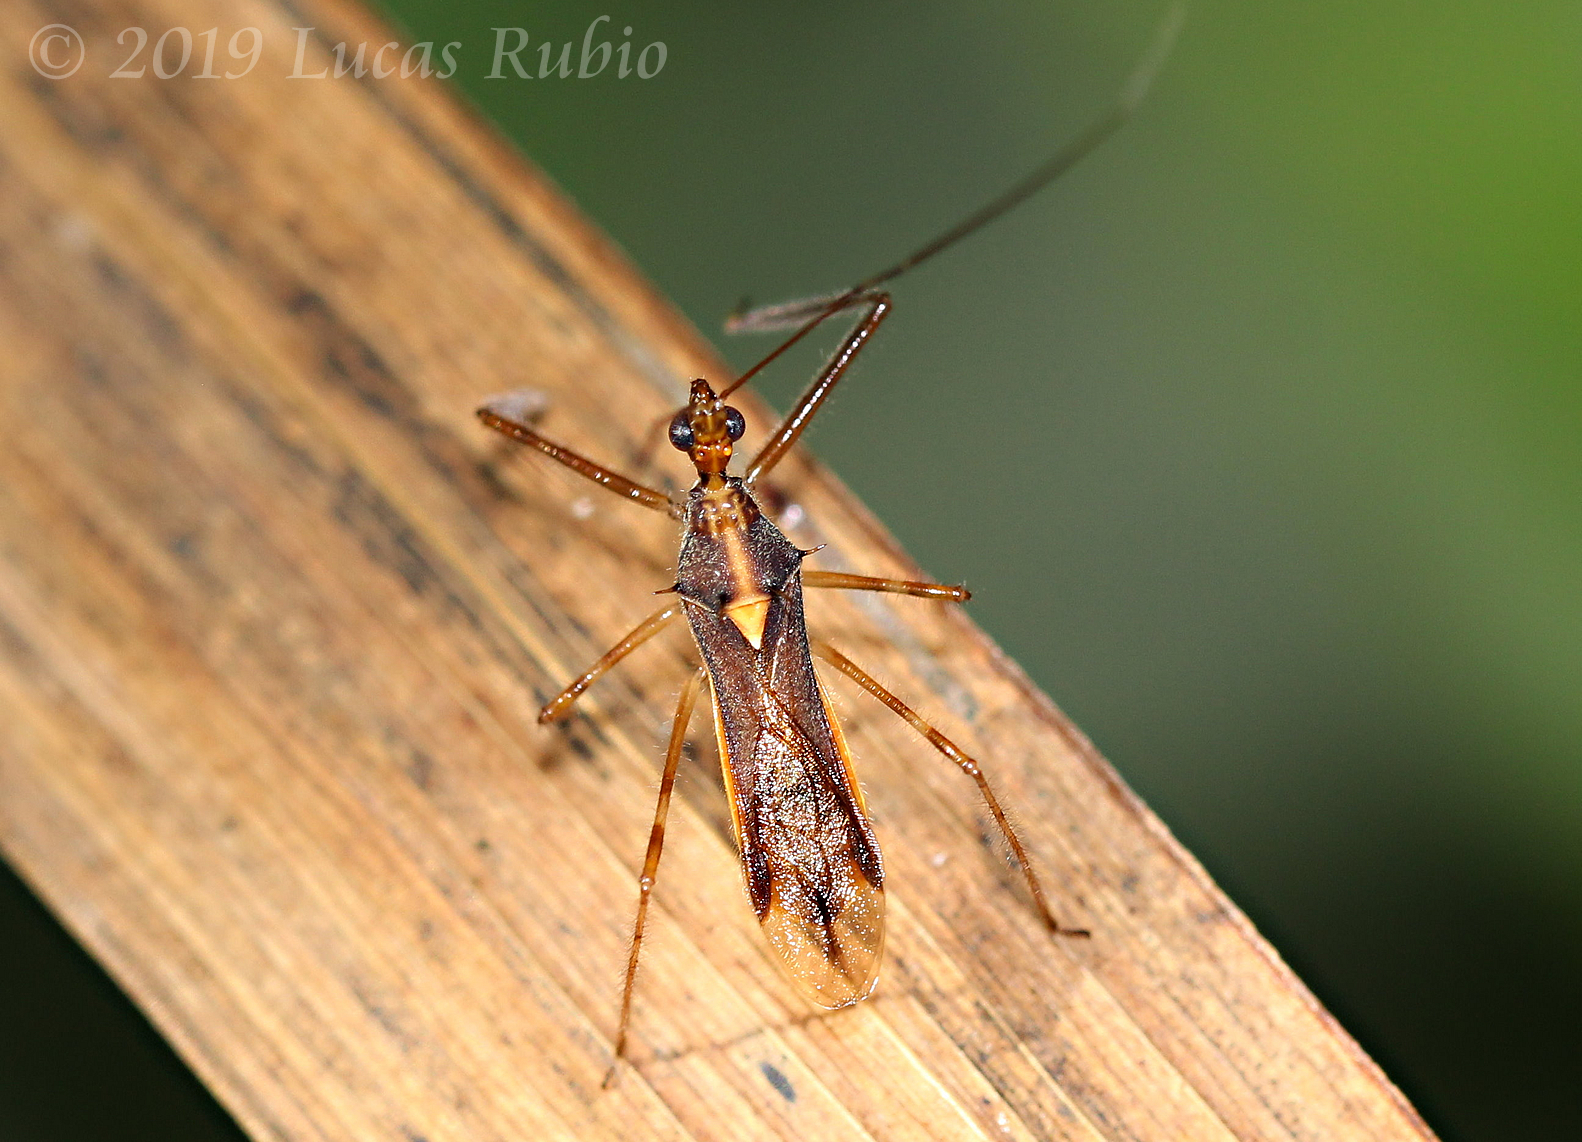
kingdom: Animalia
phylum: Arthropoda
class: Insecta
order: Hemiptera
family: Reduviidae
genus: Repipta
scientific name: Repipta flavicans
